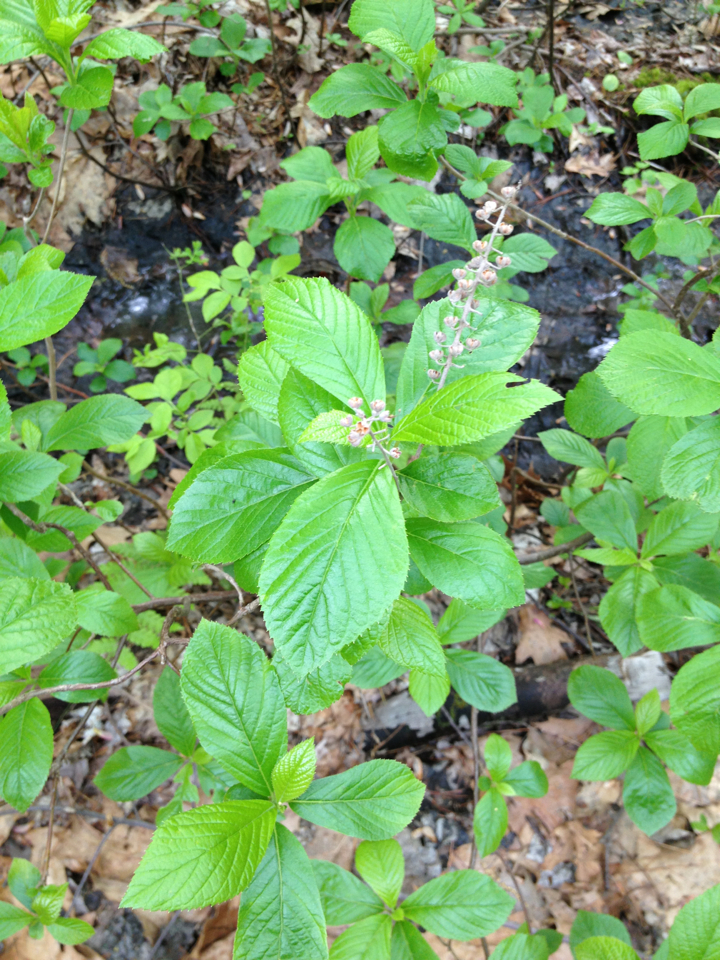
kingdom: Plantae
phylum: Tracheophyta
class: Magnoliopsida
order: Ericales
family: Clethraceae
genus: Clethra
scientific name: Clethra alnifolia
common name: Sweet pepperbush
